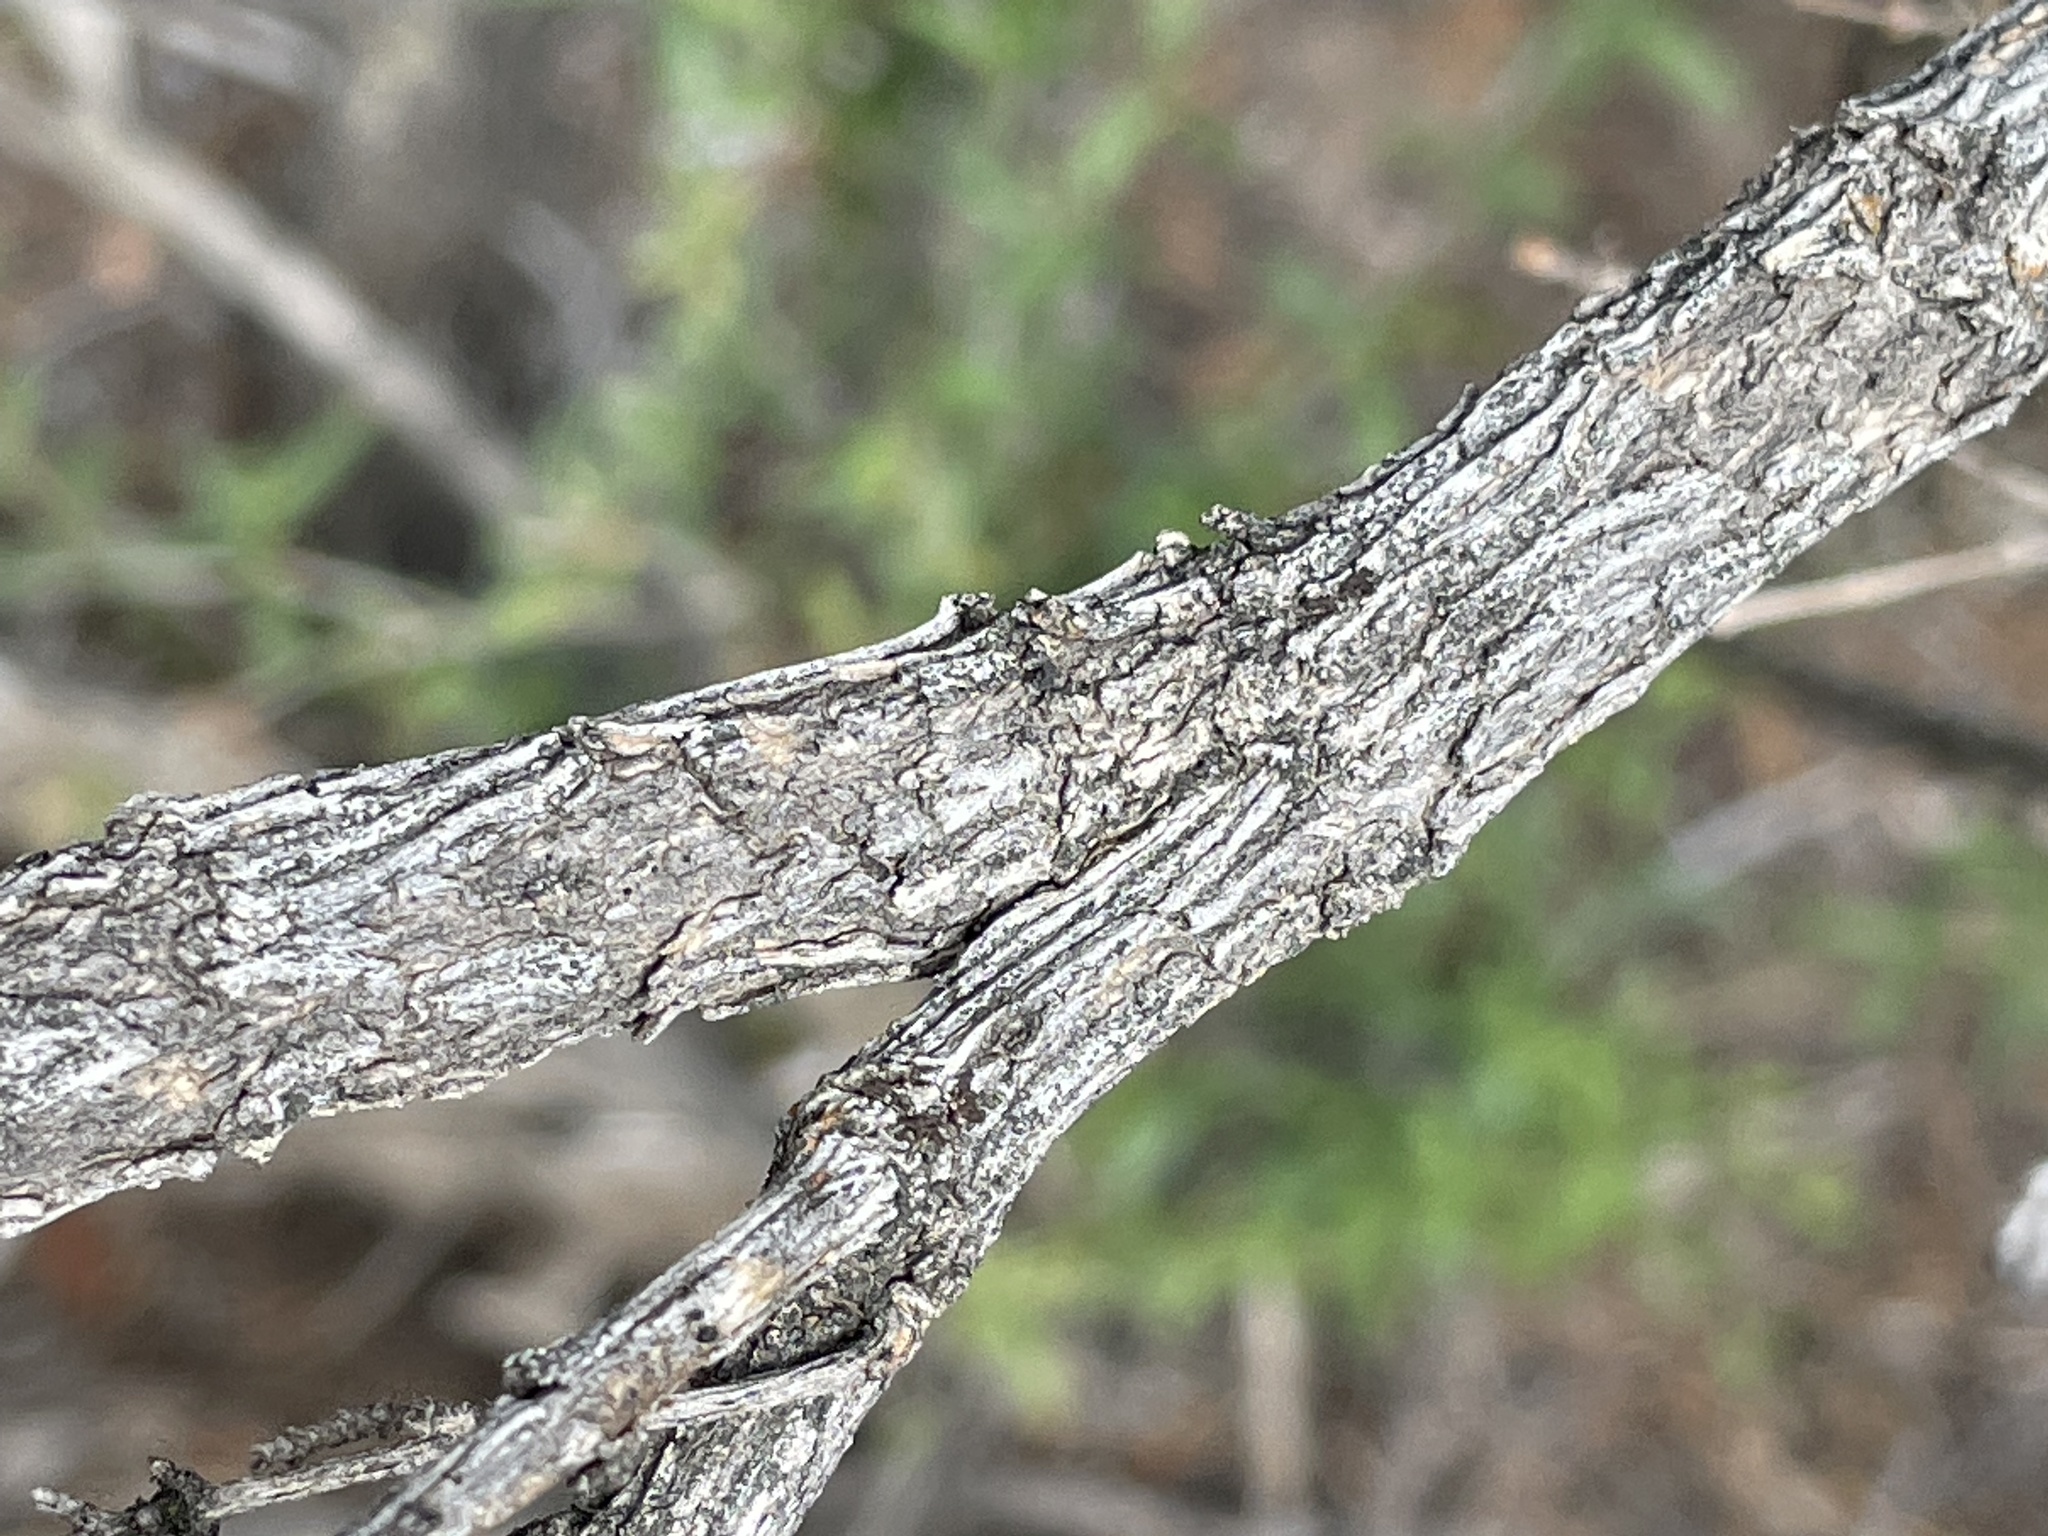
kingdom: Plantae
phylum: Tracheophyta
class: Magnoliopsida
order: Cornales
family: Hydrangeaceae
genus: Fendlera
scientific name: Fendlera rupicola
